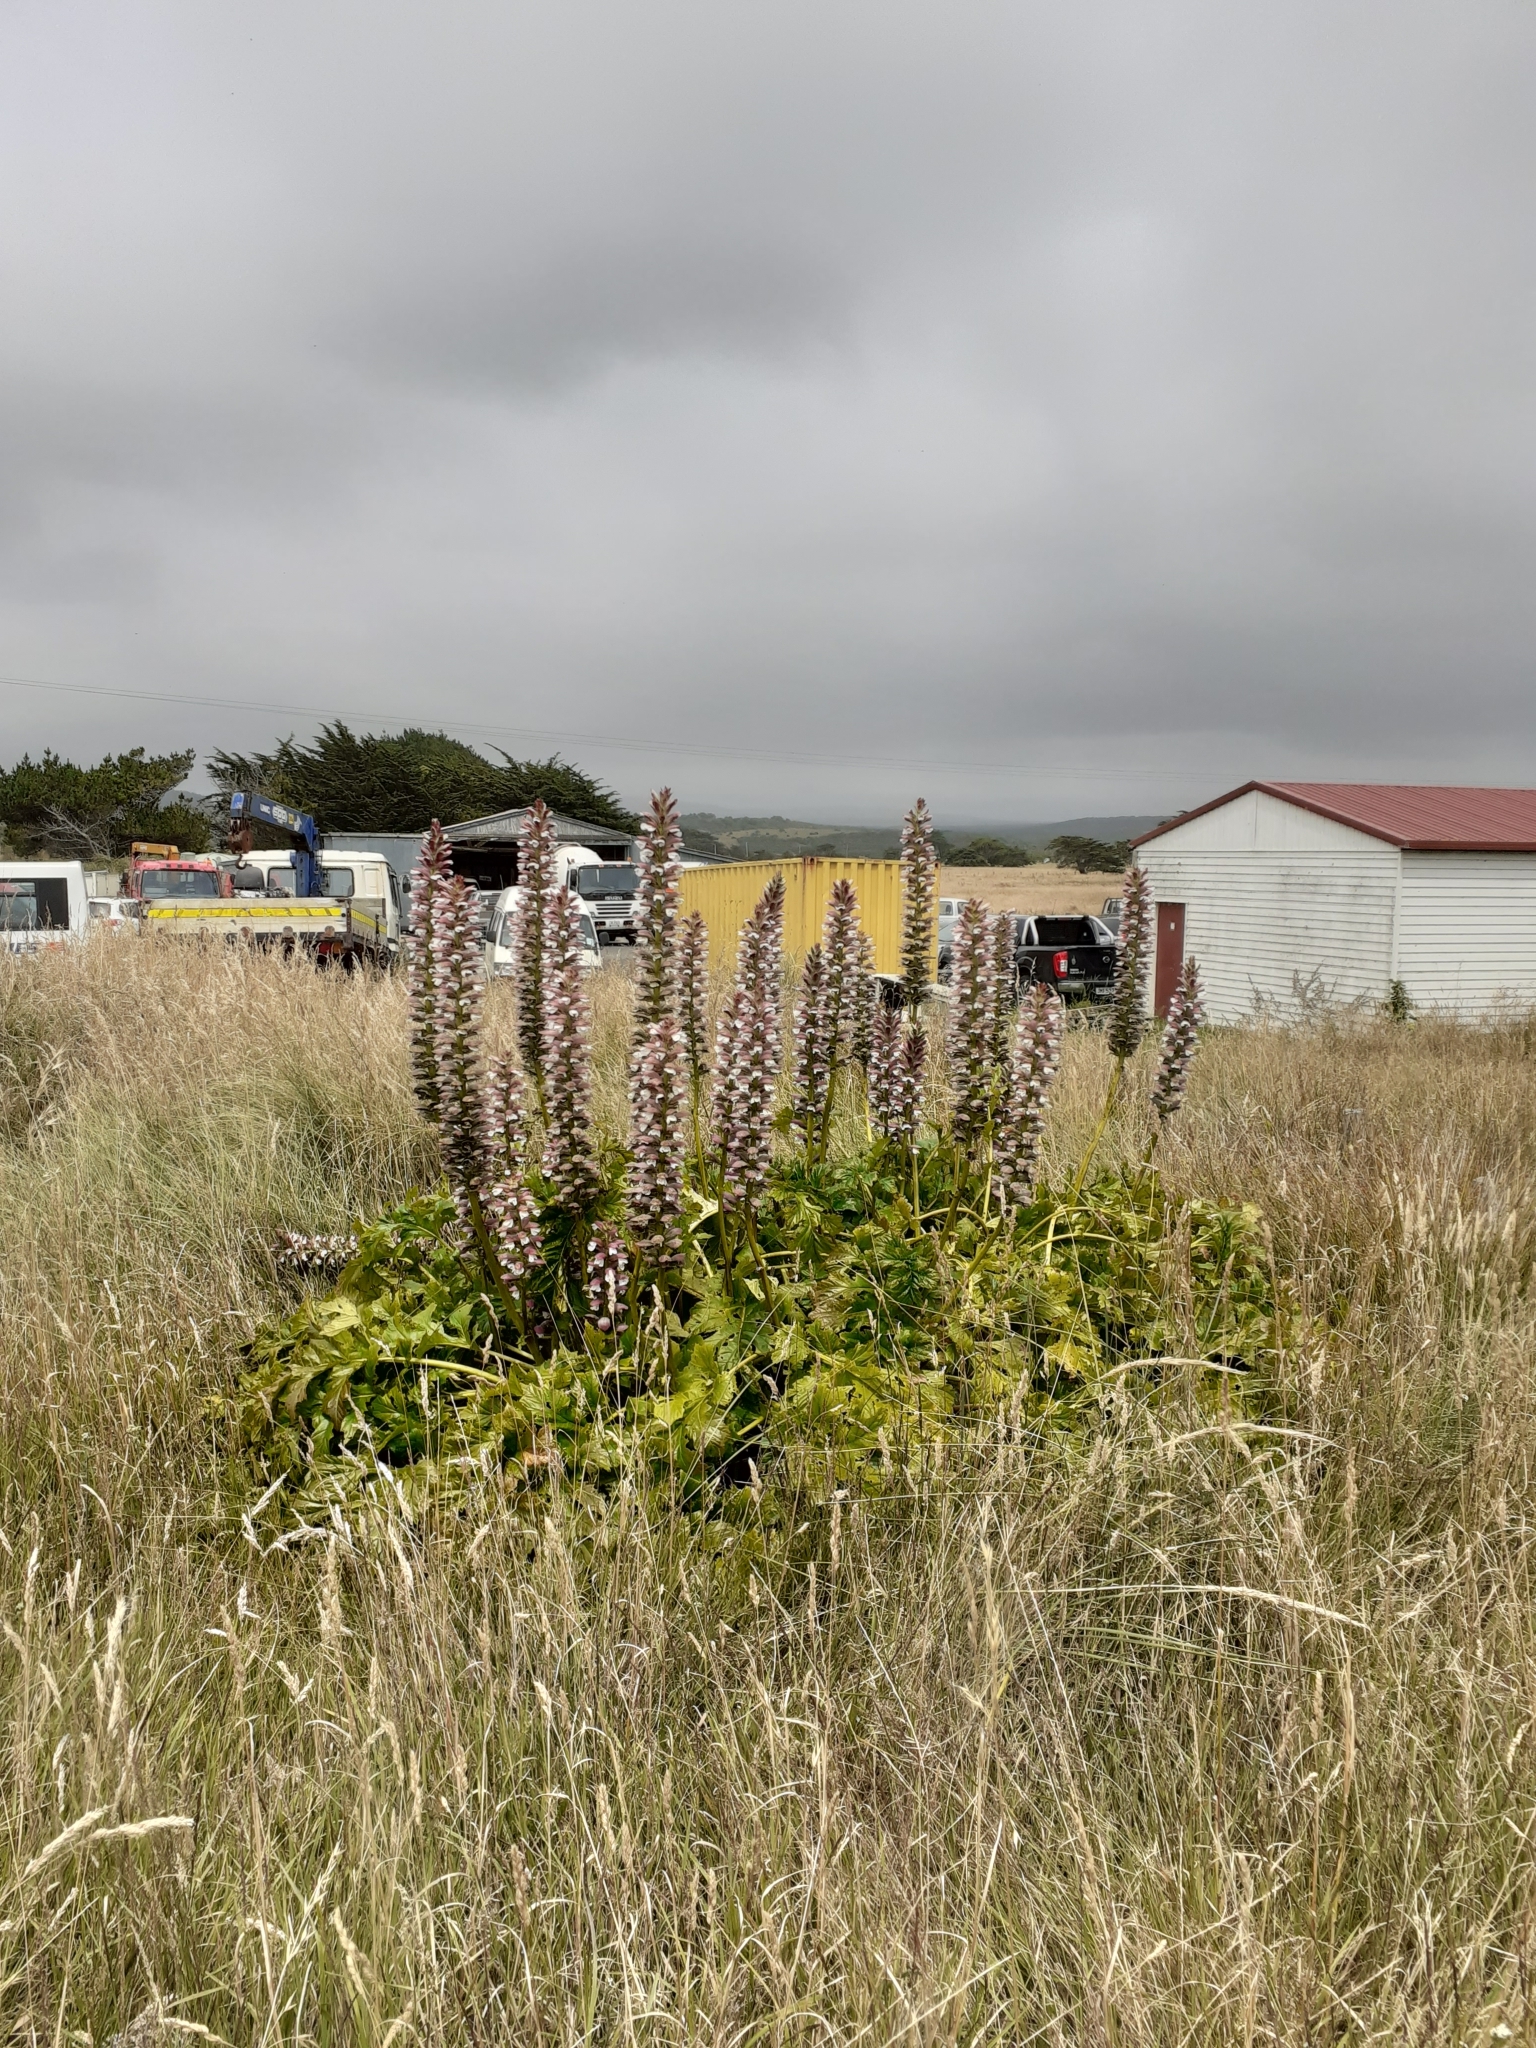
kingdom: Plantae
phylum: Tracheophyta
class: Magnoliopsida
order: Lamiales
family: Acanthaceae
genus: Acanthus
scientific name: Acanthus mollis
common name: Bear's-breech
